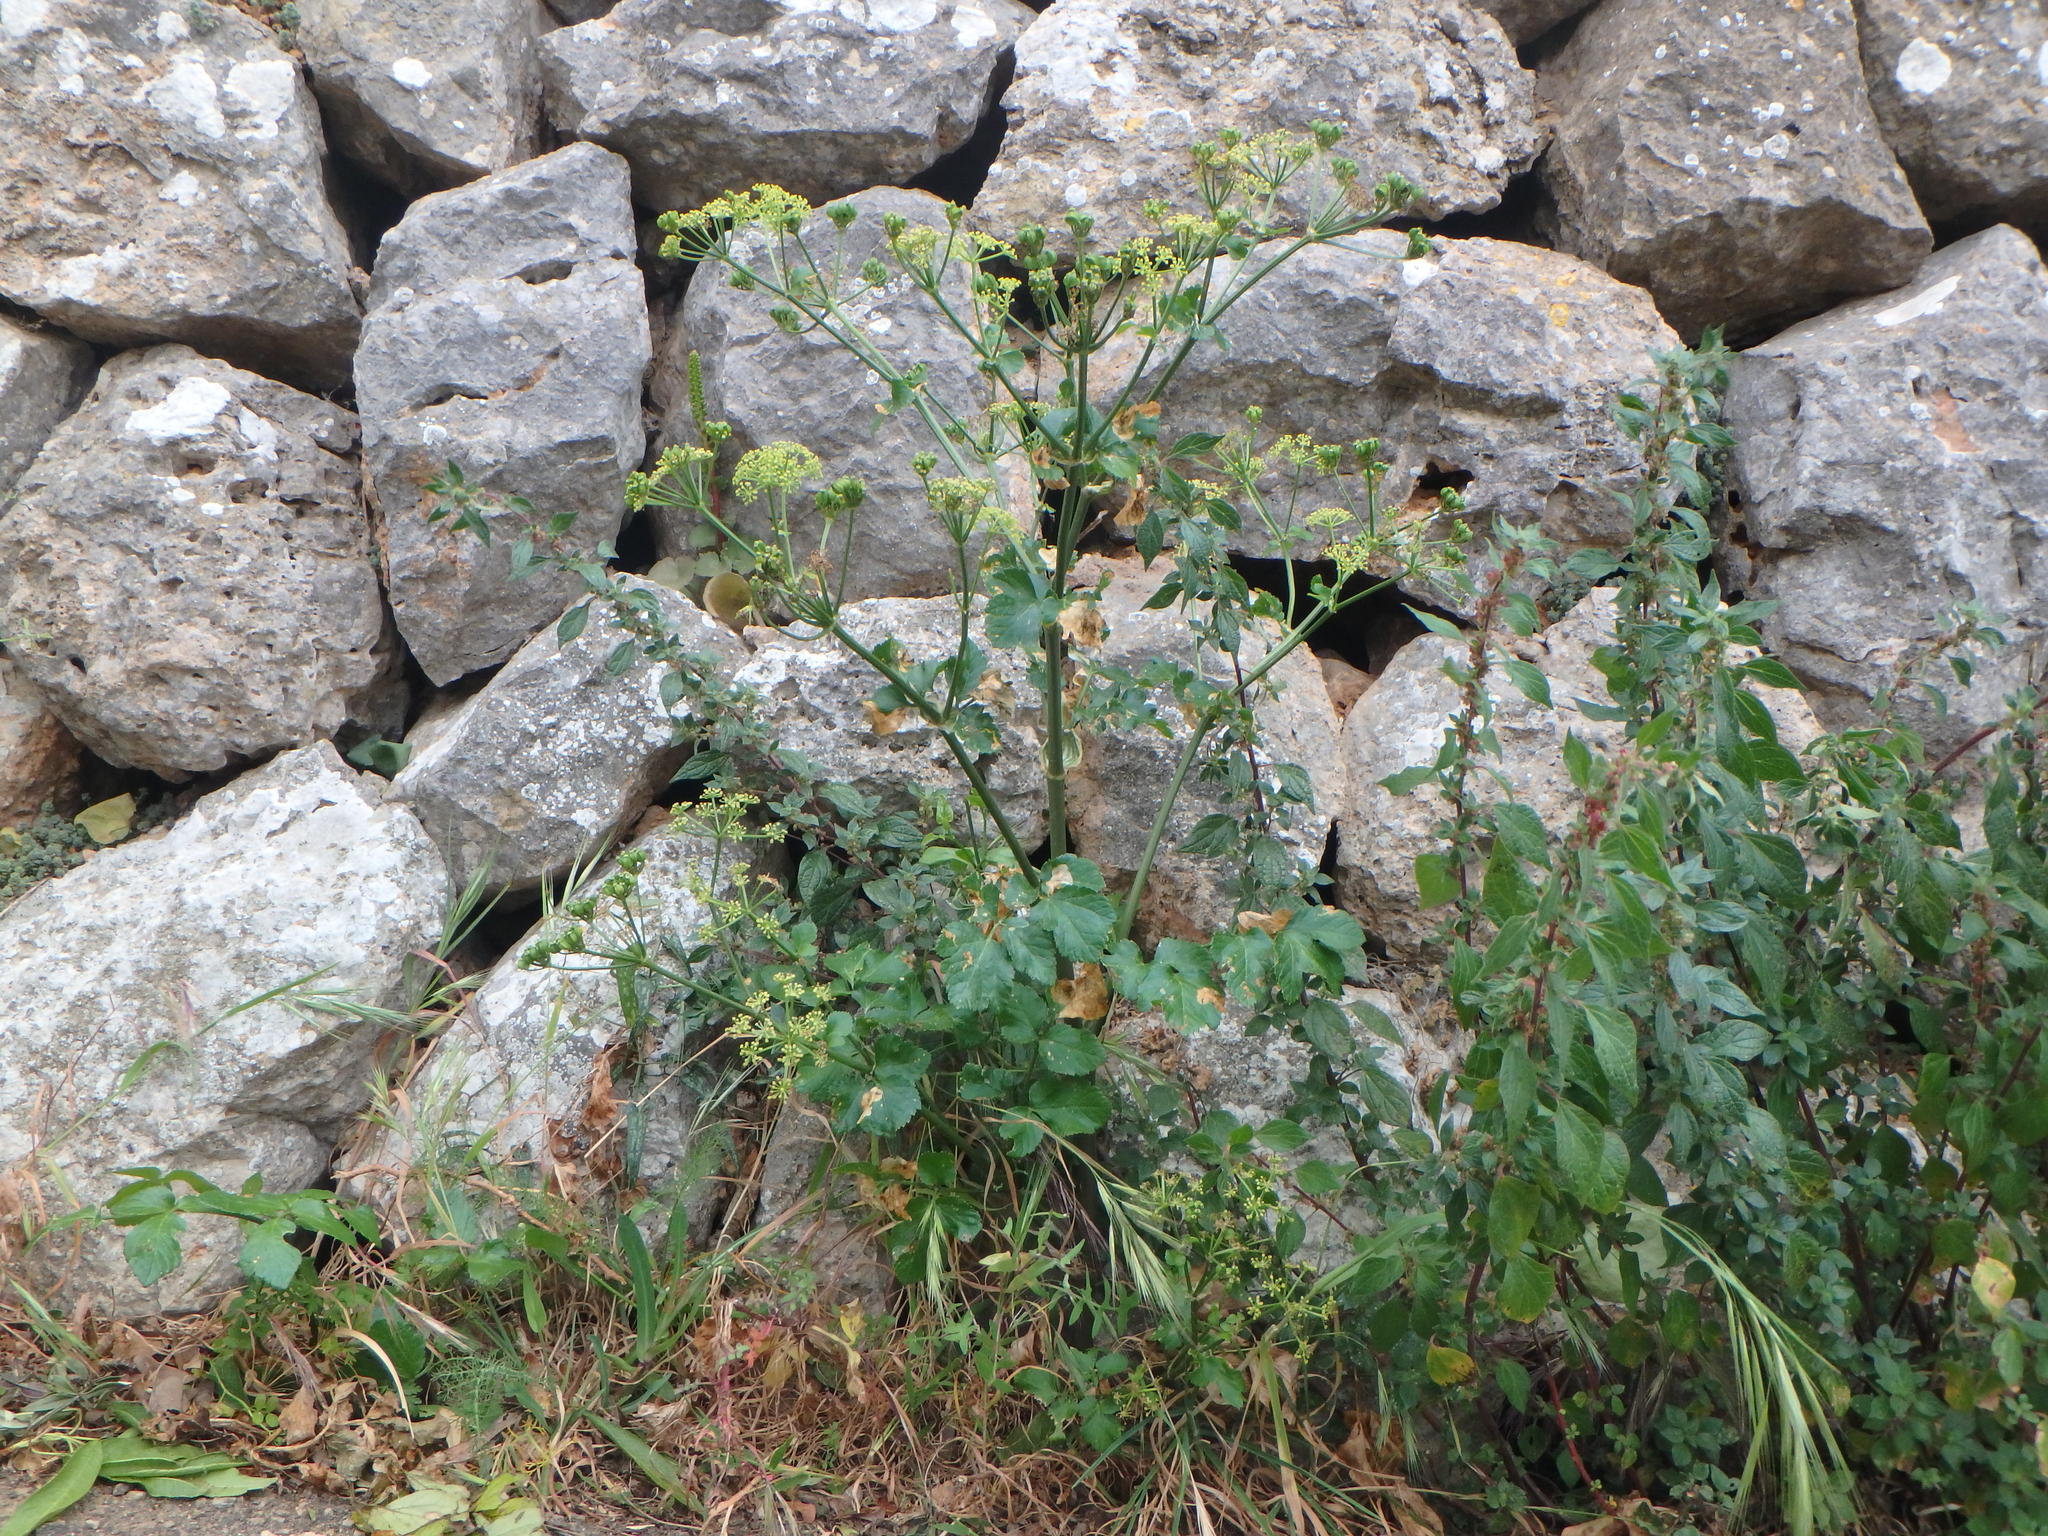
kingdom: Plantae
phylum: Tracheophyta
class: Magnoliopsida
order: Apiales
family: Apiaceae
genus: Smyrnium
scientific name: Smyrnium olusatrum
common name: Alexanders
